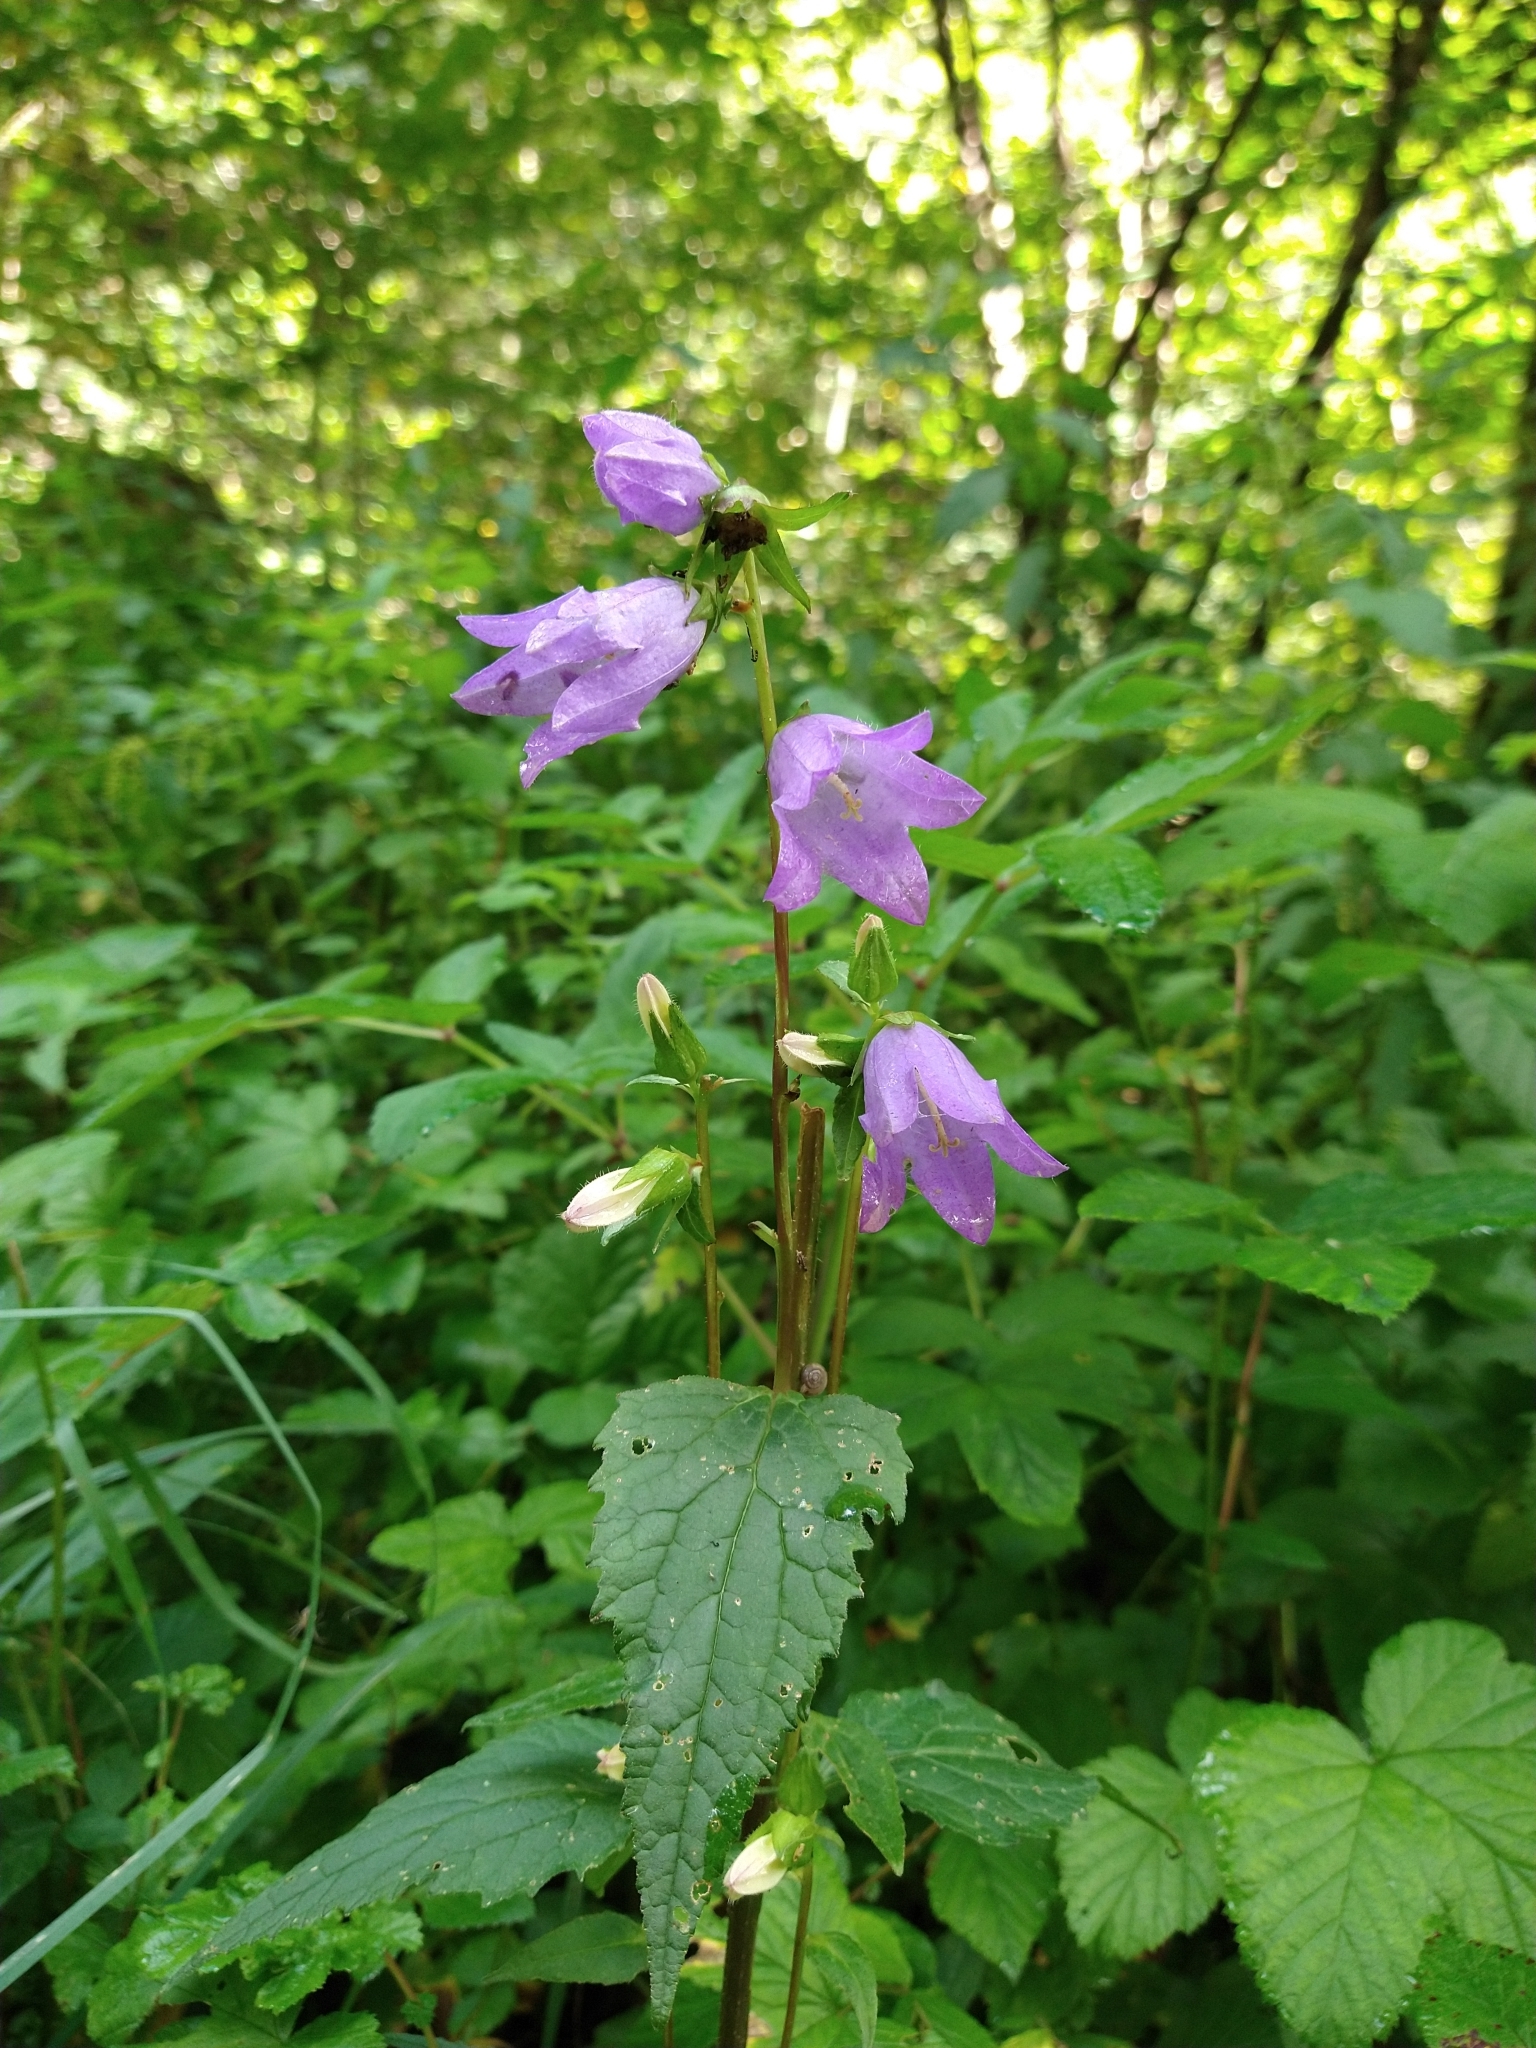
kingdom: Plantae
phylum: Tracheophyta
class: Magnoliopsida
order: Asterales
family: Campanulaceae
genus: Campanula
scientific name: Campanula trachelium
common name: Nettle-leaved bellflower
